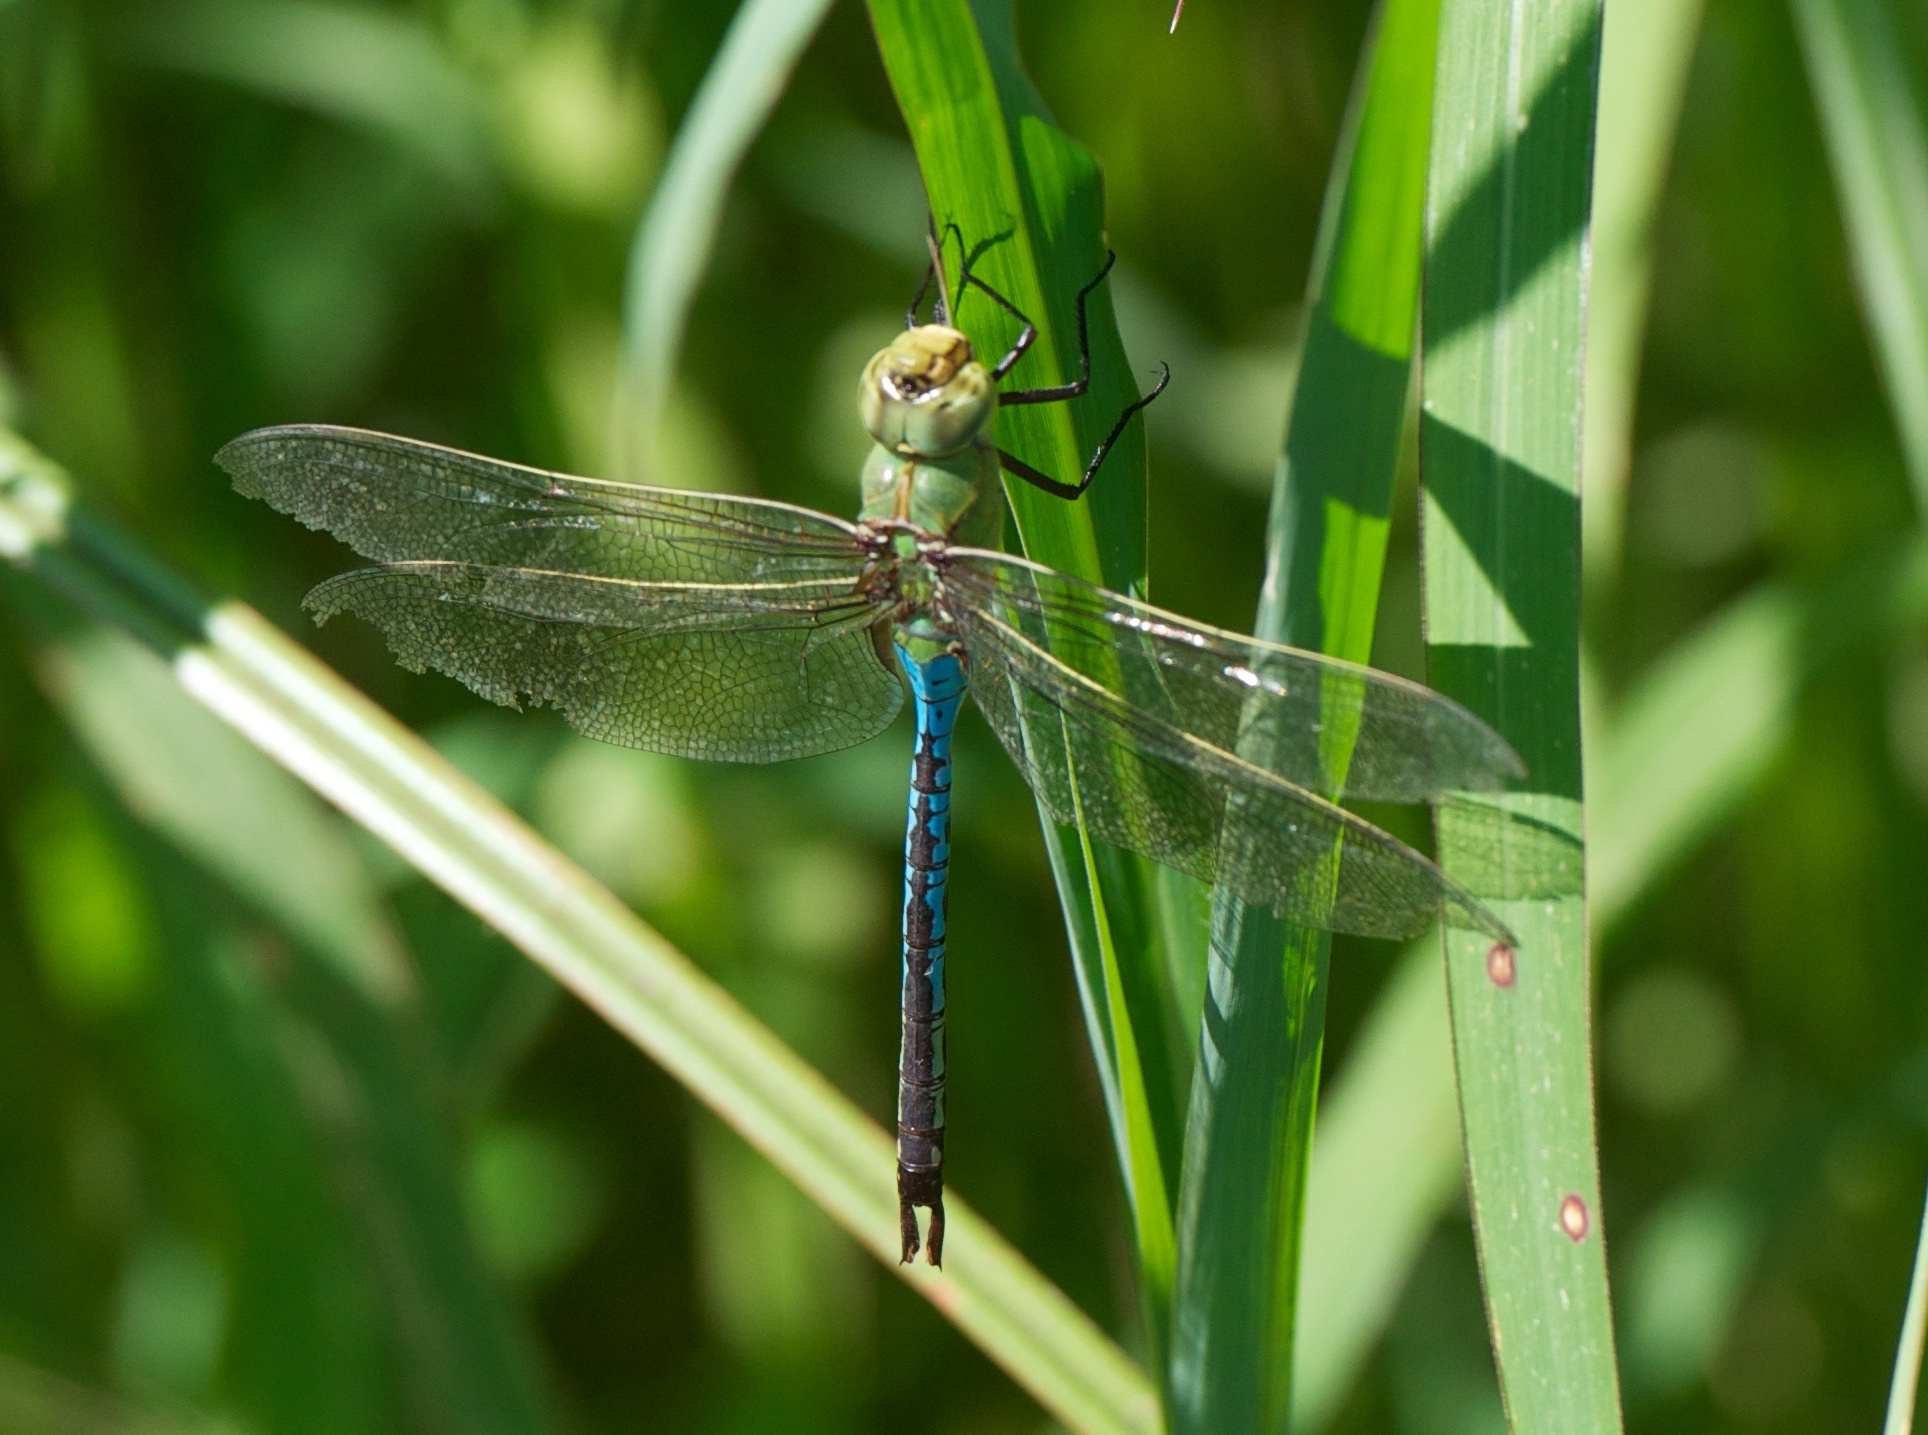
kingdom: Animalia
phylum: Arthropoda
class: Insecta
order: Odonata
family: Aeshnidae
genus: Anax
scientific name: Anax junius
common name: Common green darner
